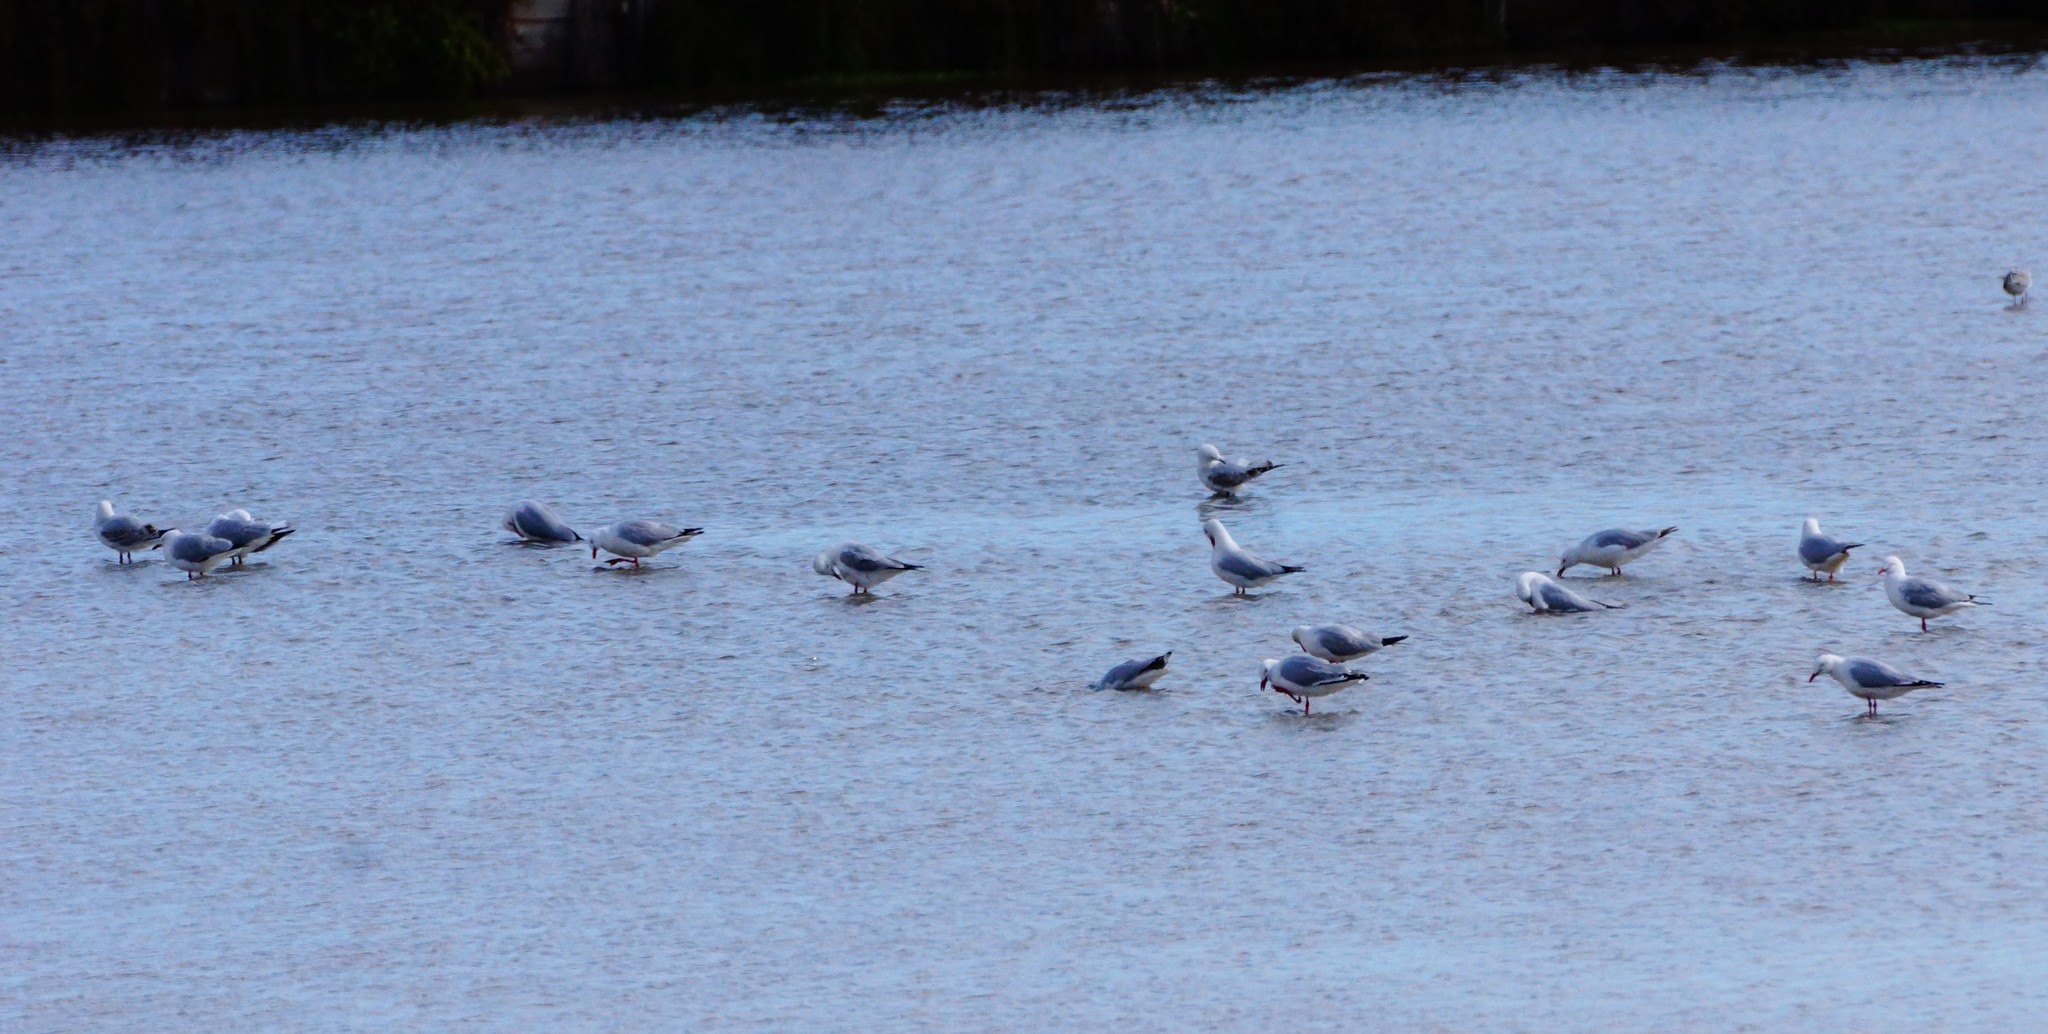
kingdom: Animalia
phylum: Chordata
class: Aves
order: Charadriiformes
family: Laridae
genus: Chroicocephalus
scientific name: Chroicocephalus novaehollandiae
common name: Silver gull
